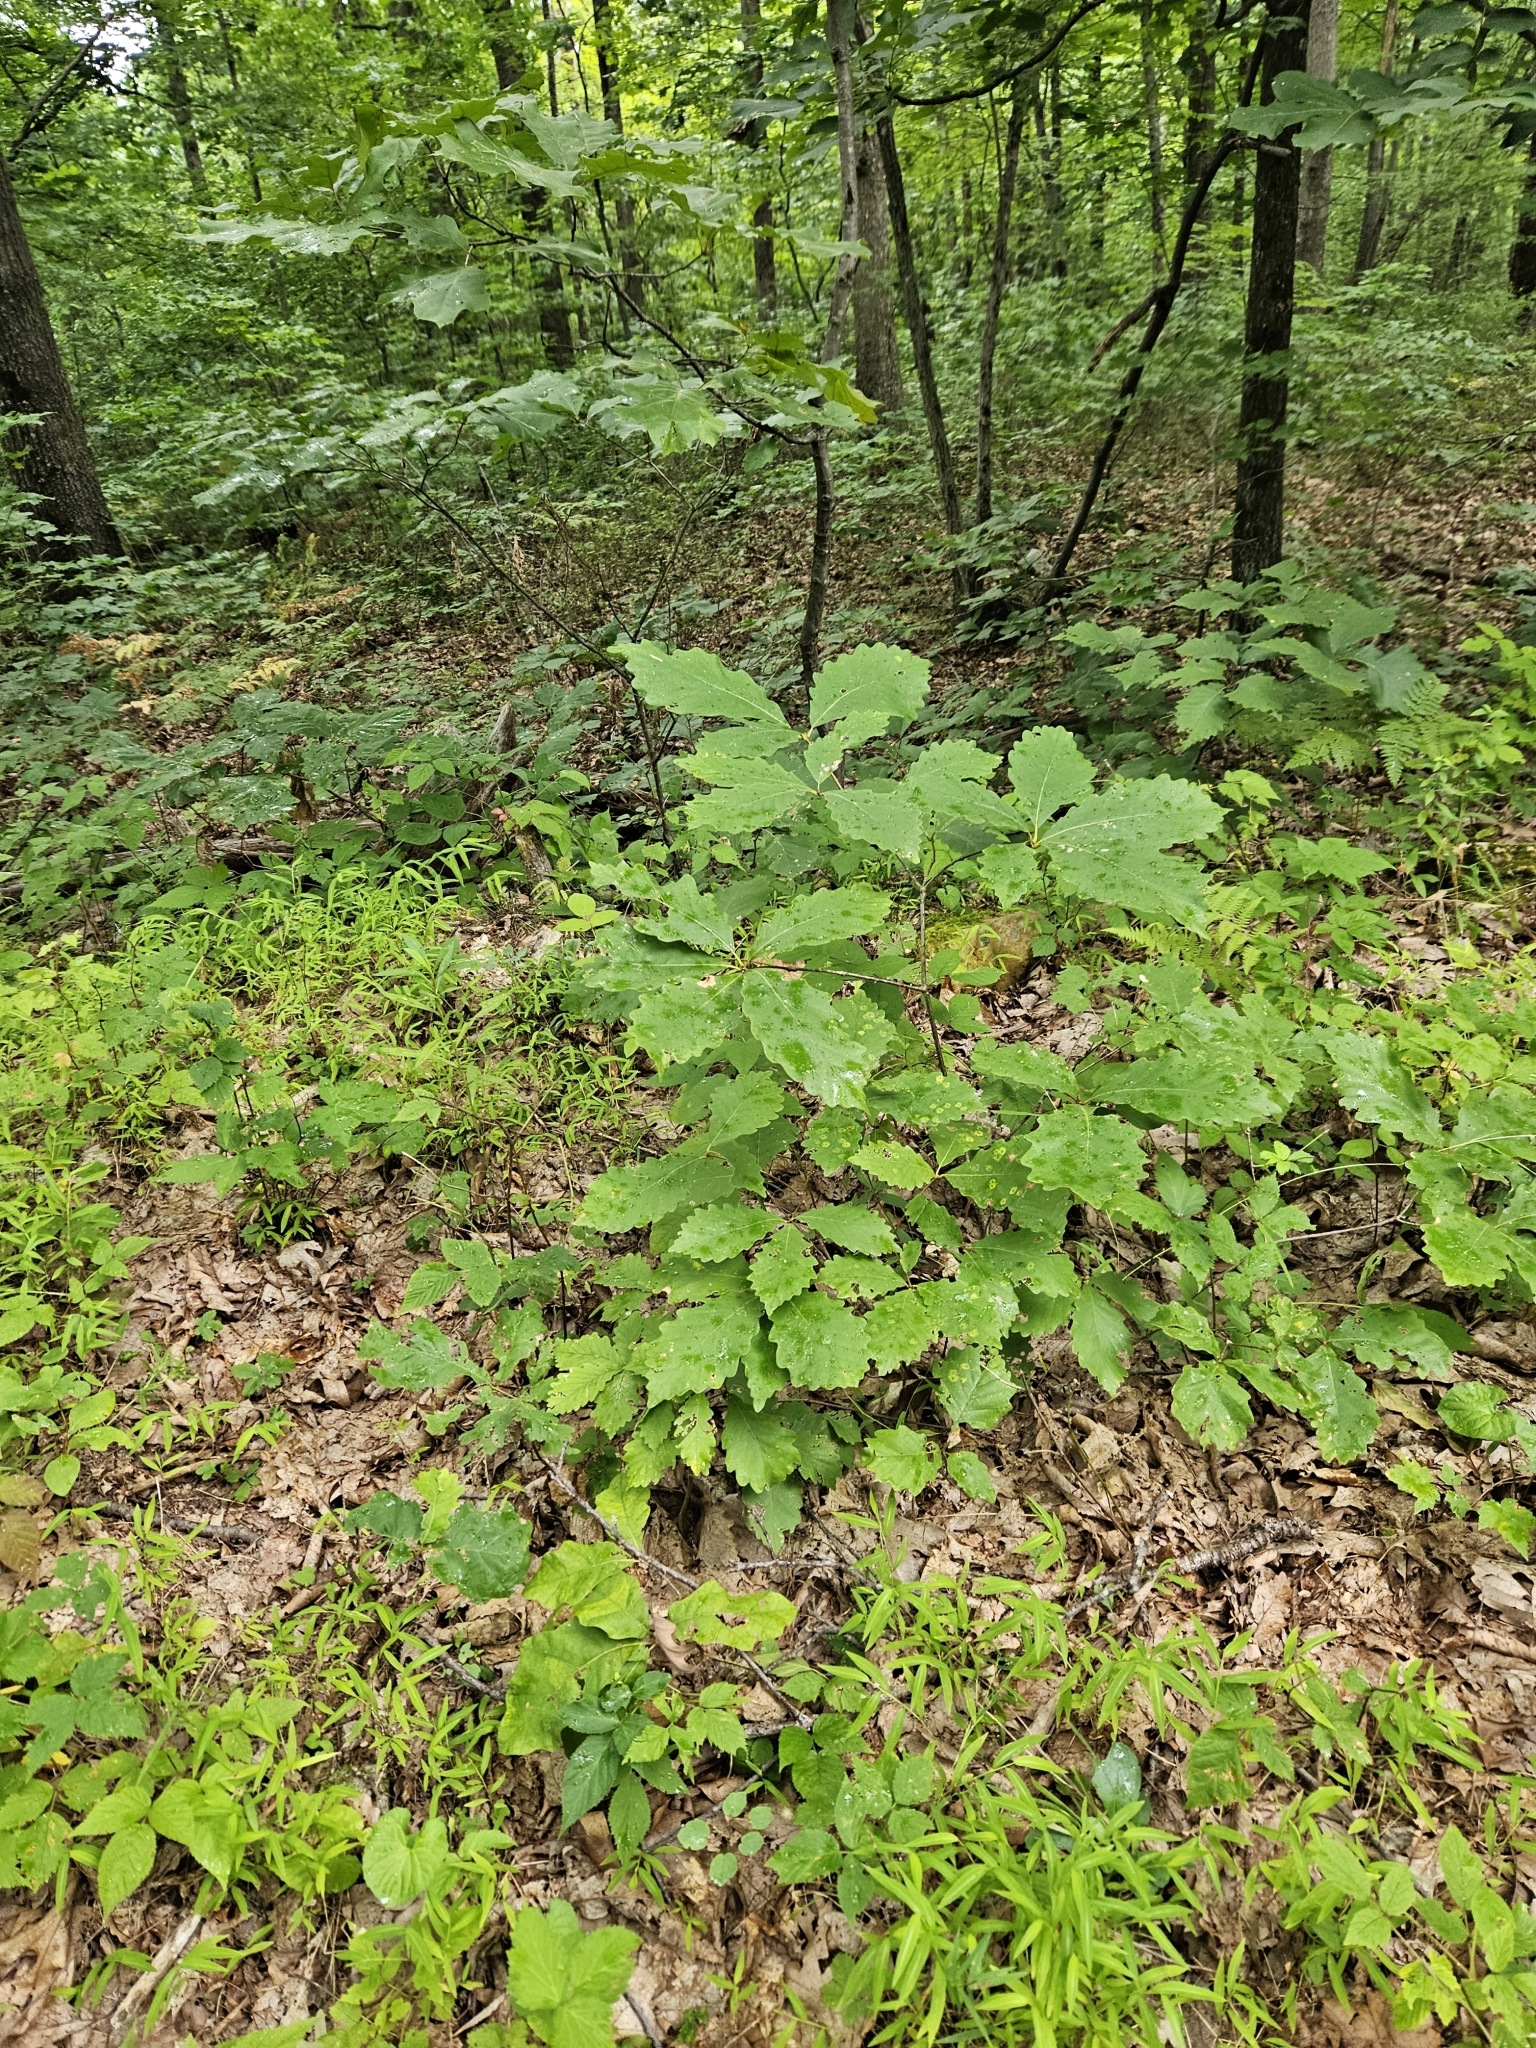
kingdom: Plantae
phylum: Tracheophyta
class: Magnoliopsida
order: Fagales
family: Fagaceae
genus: Quercus
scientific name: Quercus montana
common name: Chestnut oak
